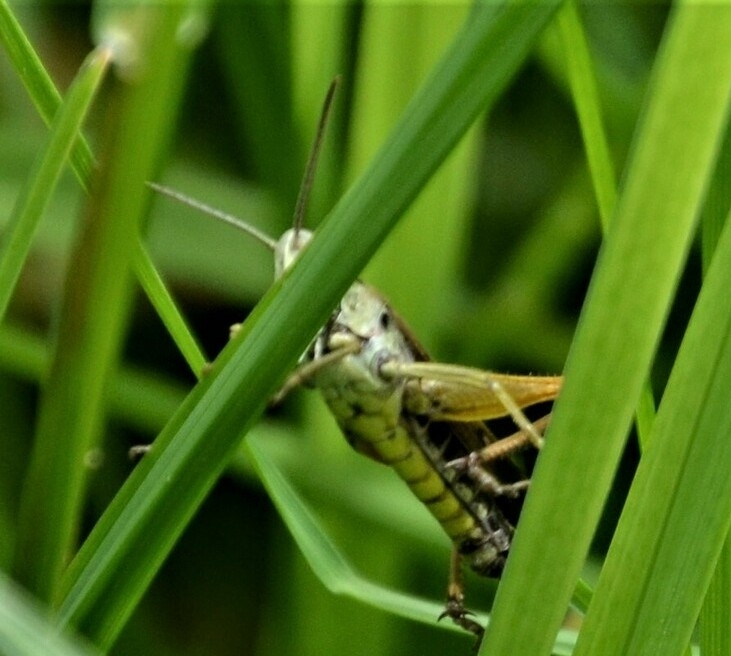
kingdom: Animalia
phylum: Arthropoda
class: Insecta
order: Orthoptera
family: Acrididae
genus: Omocestus
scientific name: Omocestus viridulus
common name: Common green grasshopper
